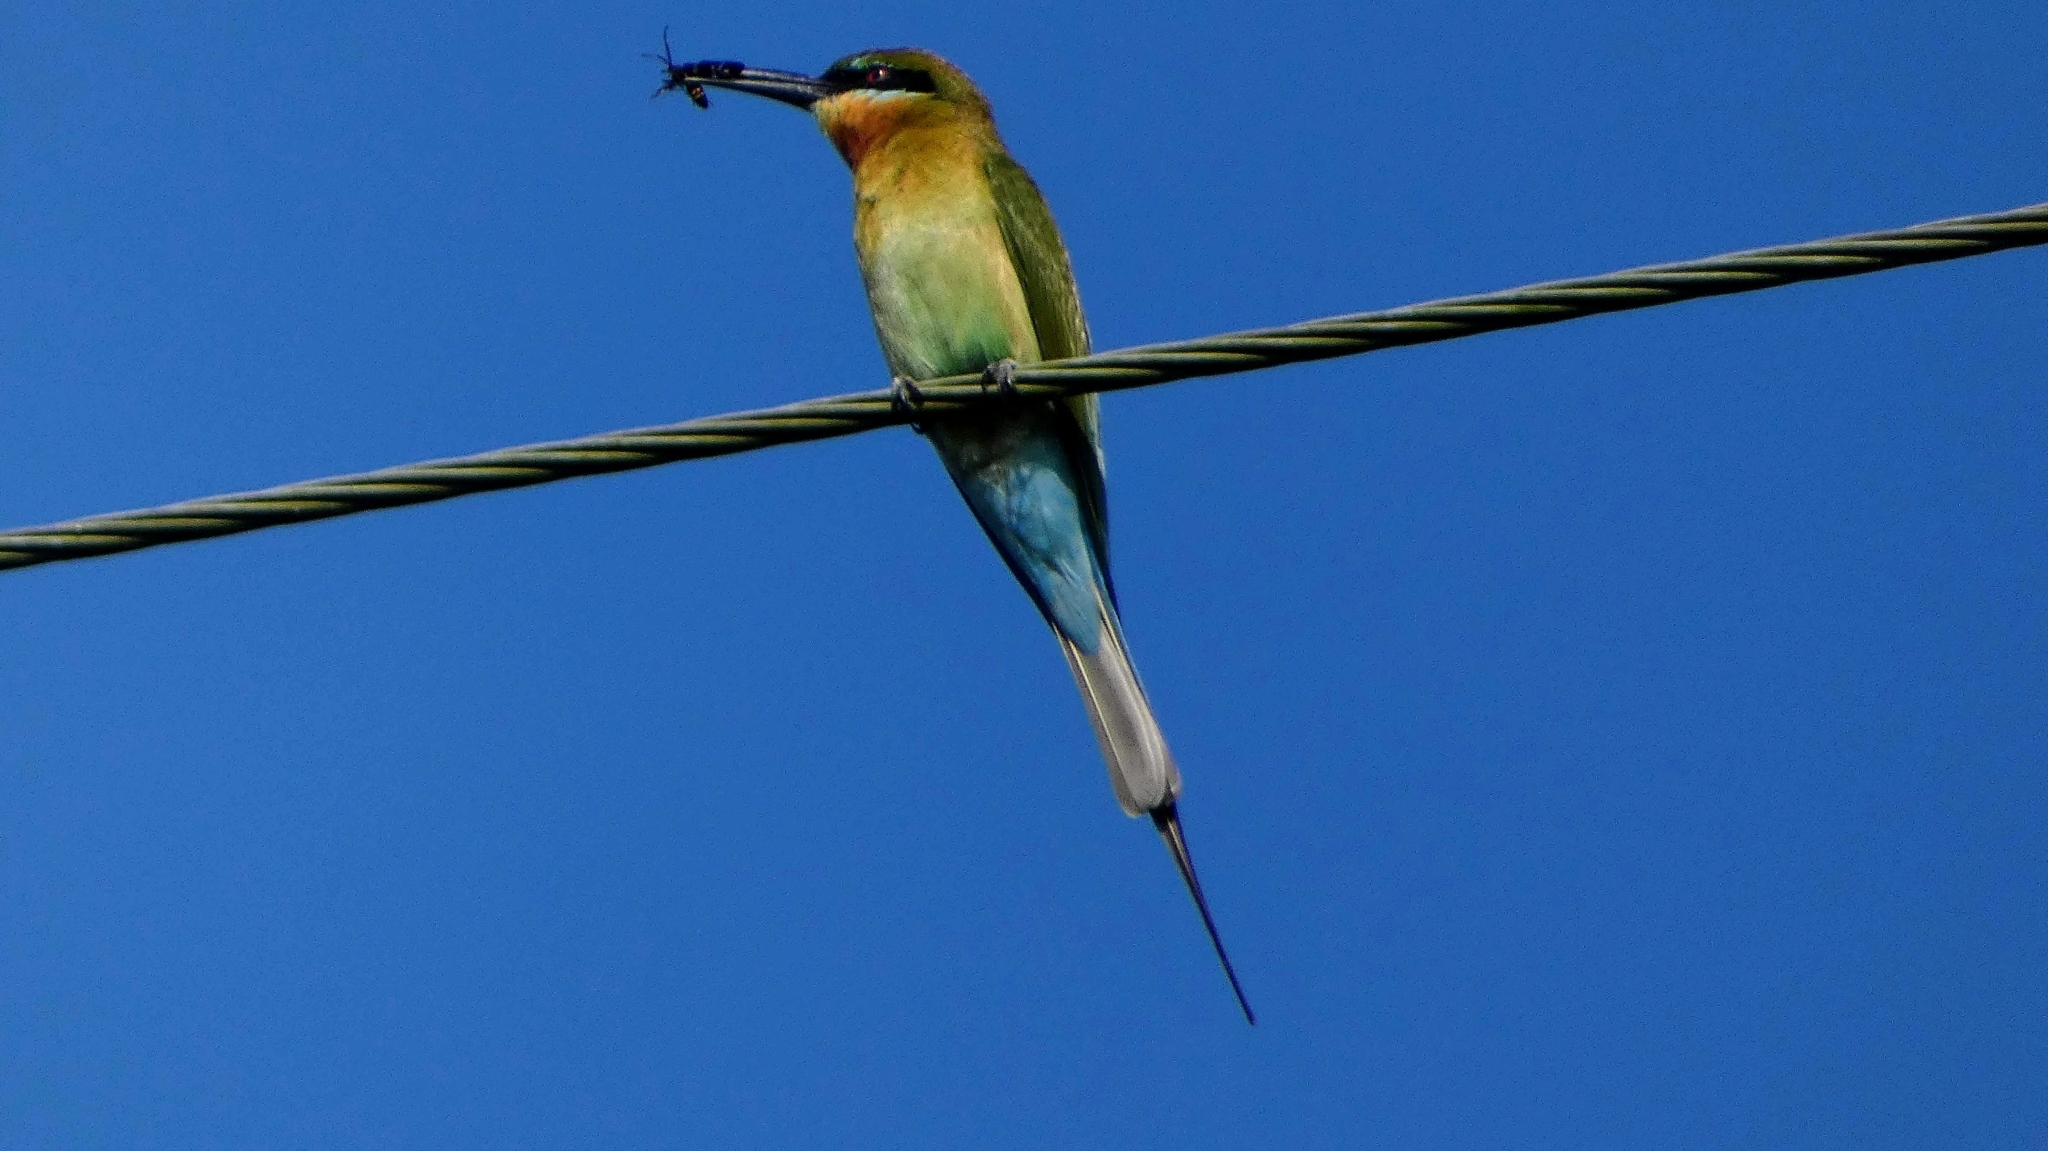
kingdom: Animalia
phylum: Chordata
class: Aves
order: Coraciiformes
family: Meropidae
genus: Merops
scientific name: Merops philippinus
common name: Blue-tailed bee-eater
